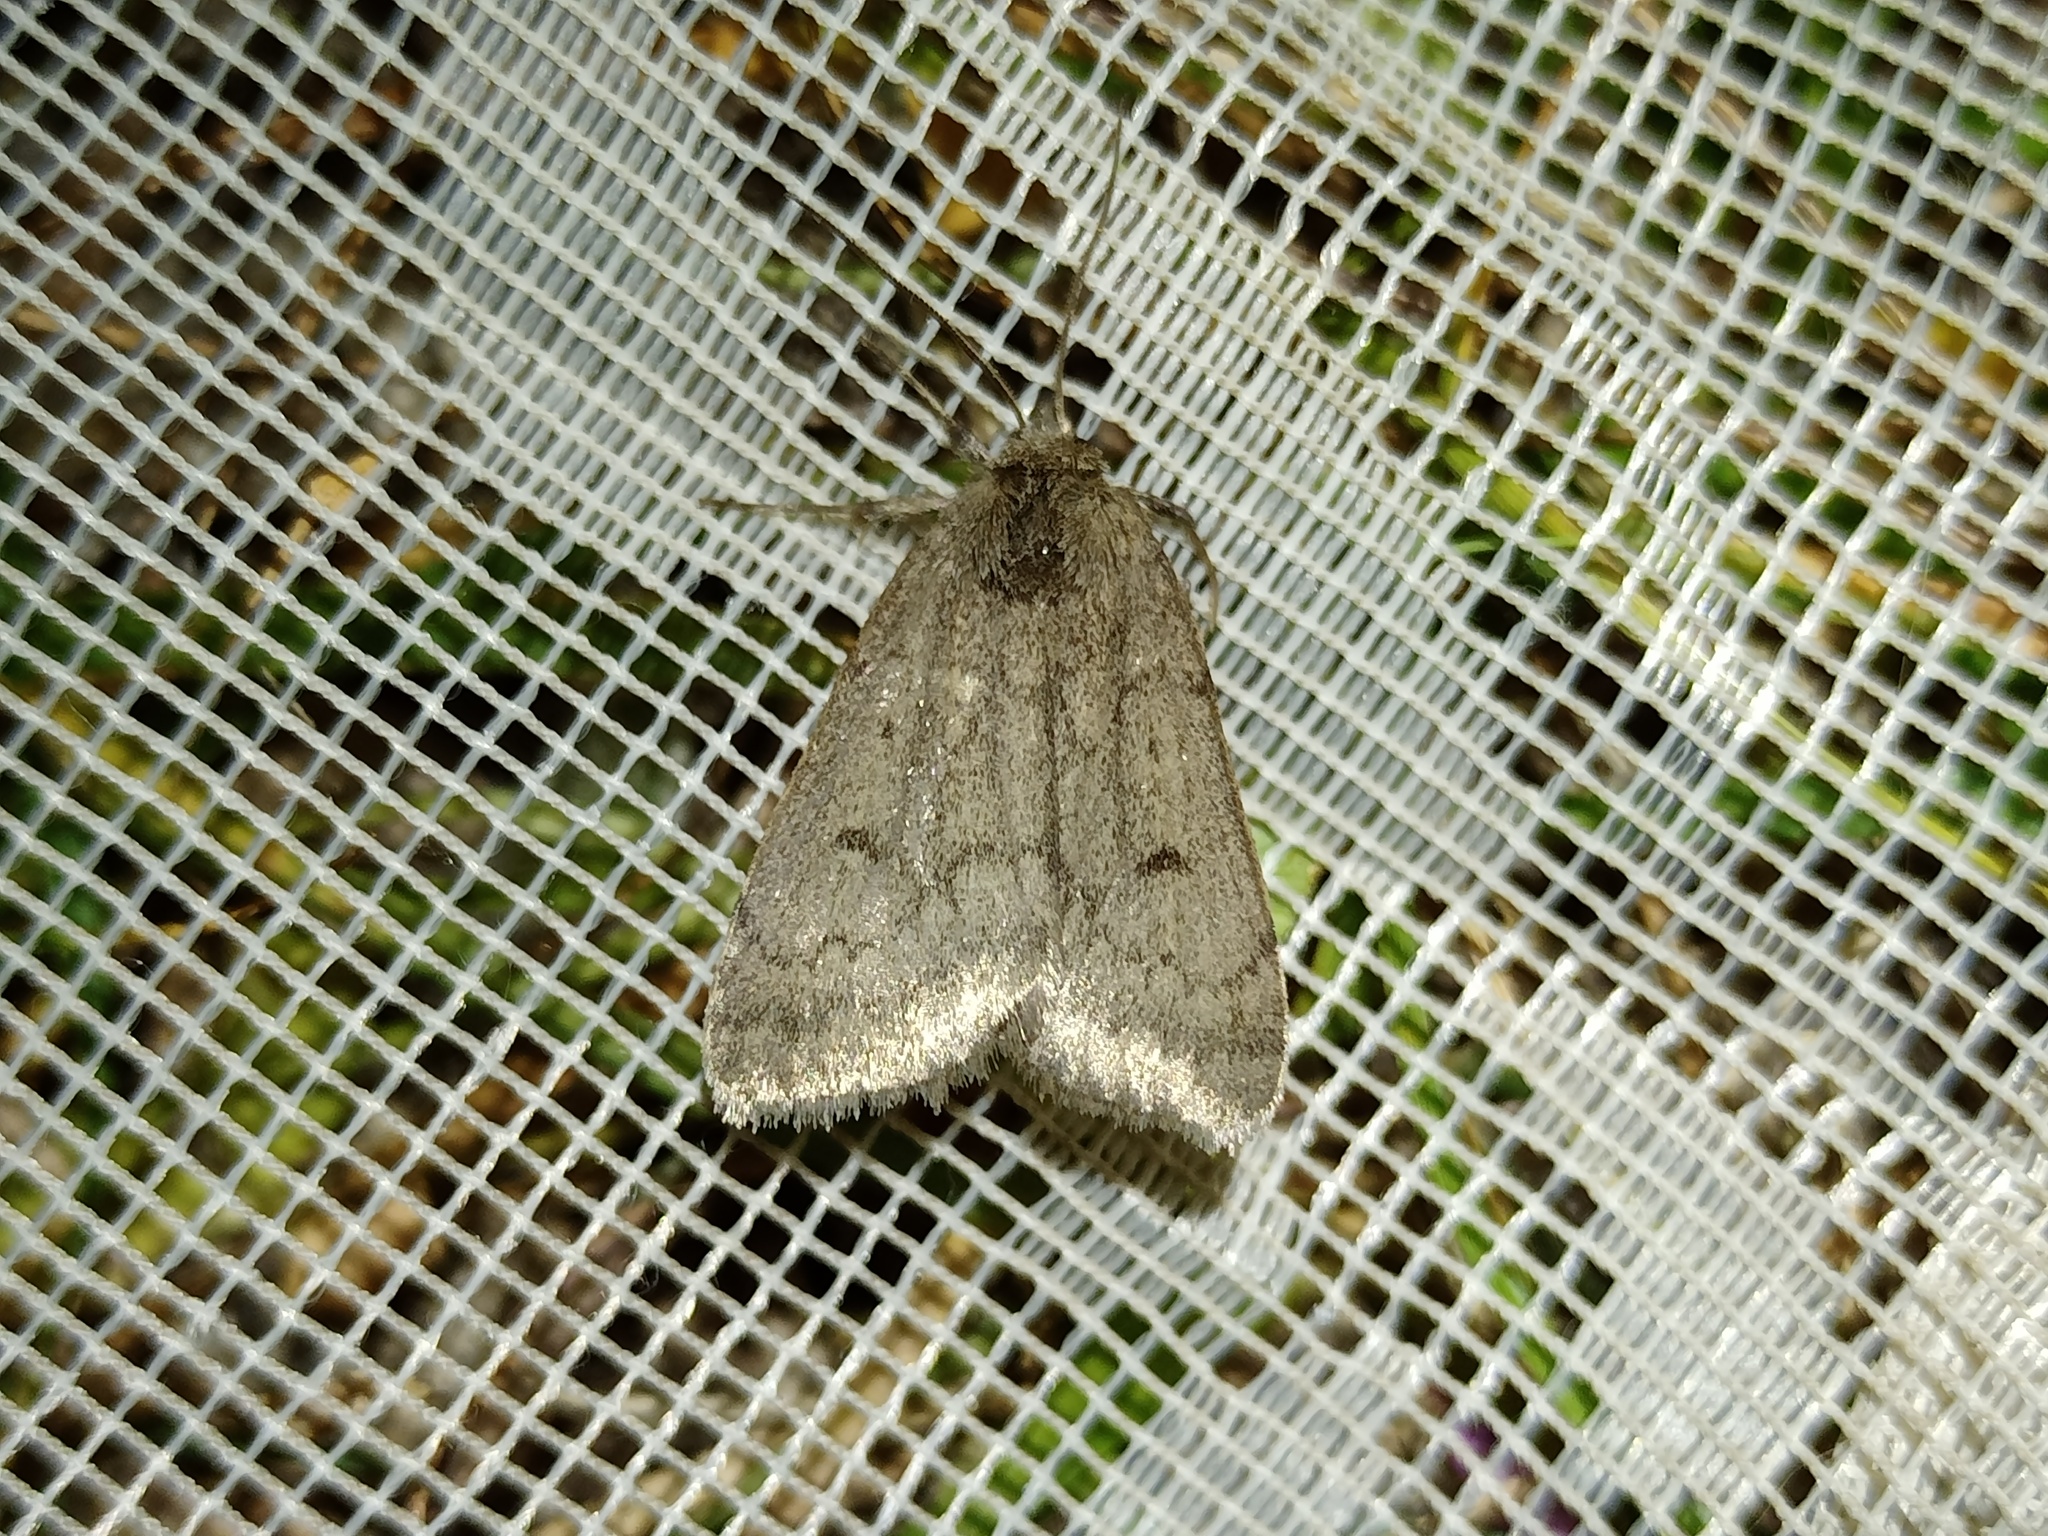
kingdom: Animalia
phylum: Arthropoda
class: Insecta
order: Lepidoptera
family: Noctuidae
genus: Athetis
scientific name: Athetis pallustris
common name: Marsh moth
